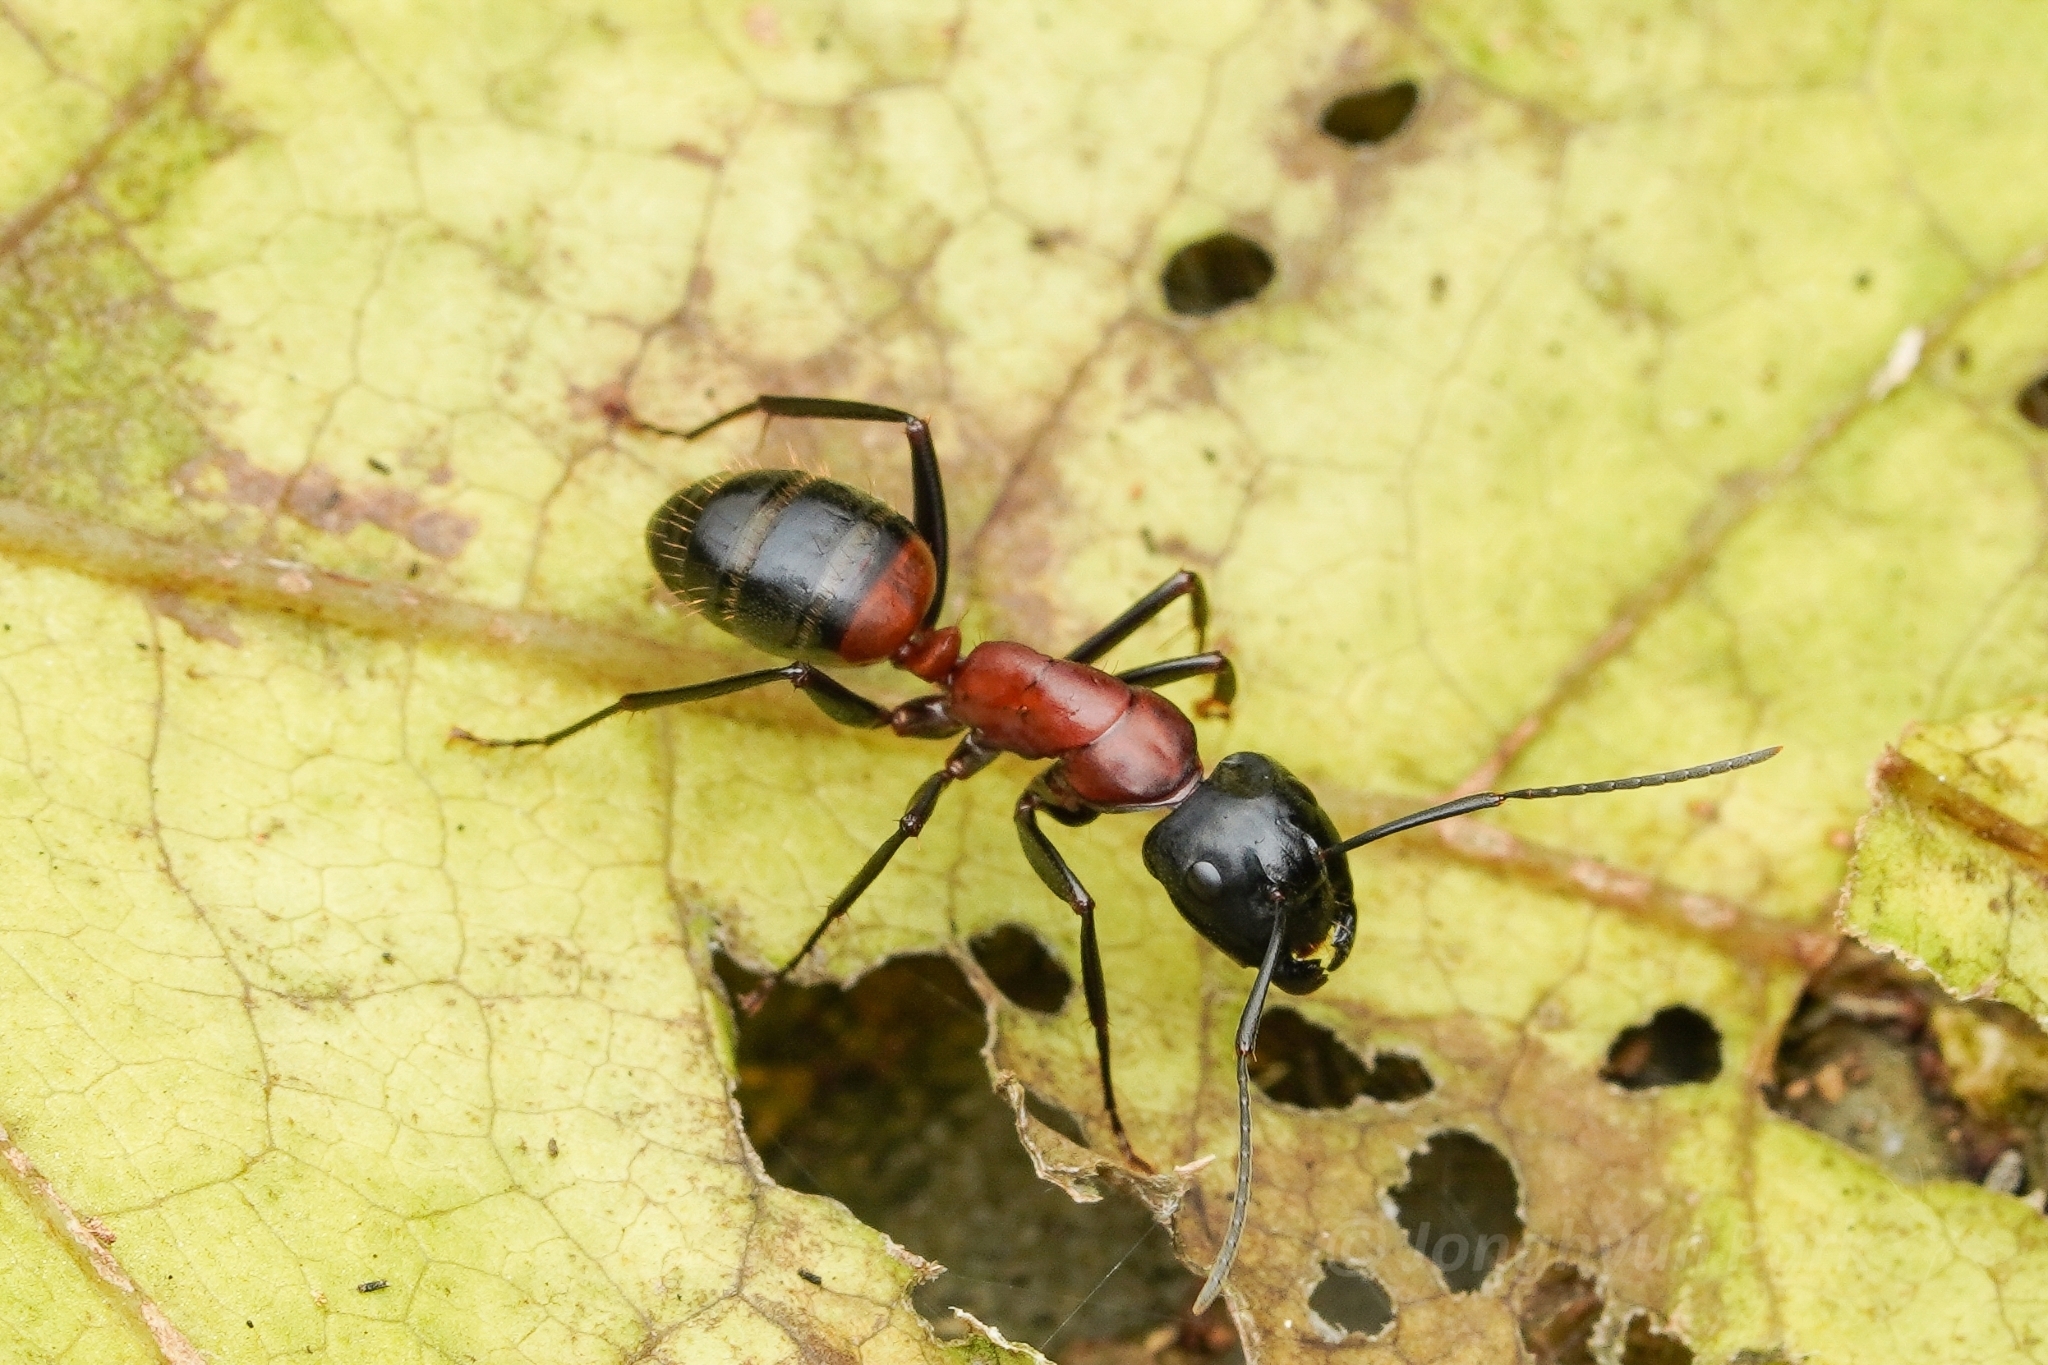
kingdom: Animalia
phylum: Arthropoda
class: Insecta
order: Hymenoptera
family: Formicidae
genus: Camponotus
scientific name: Camponotus obscuripes
